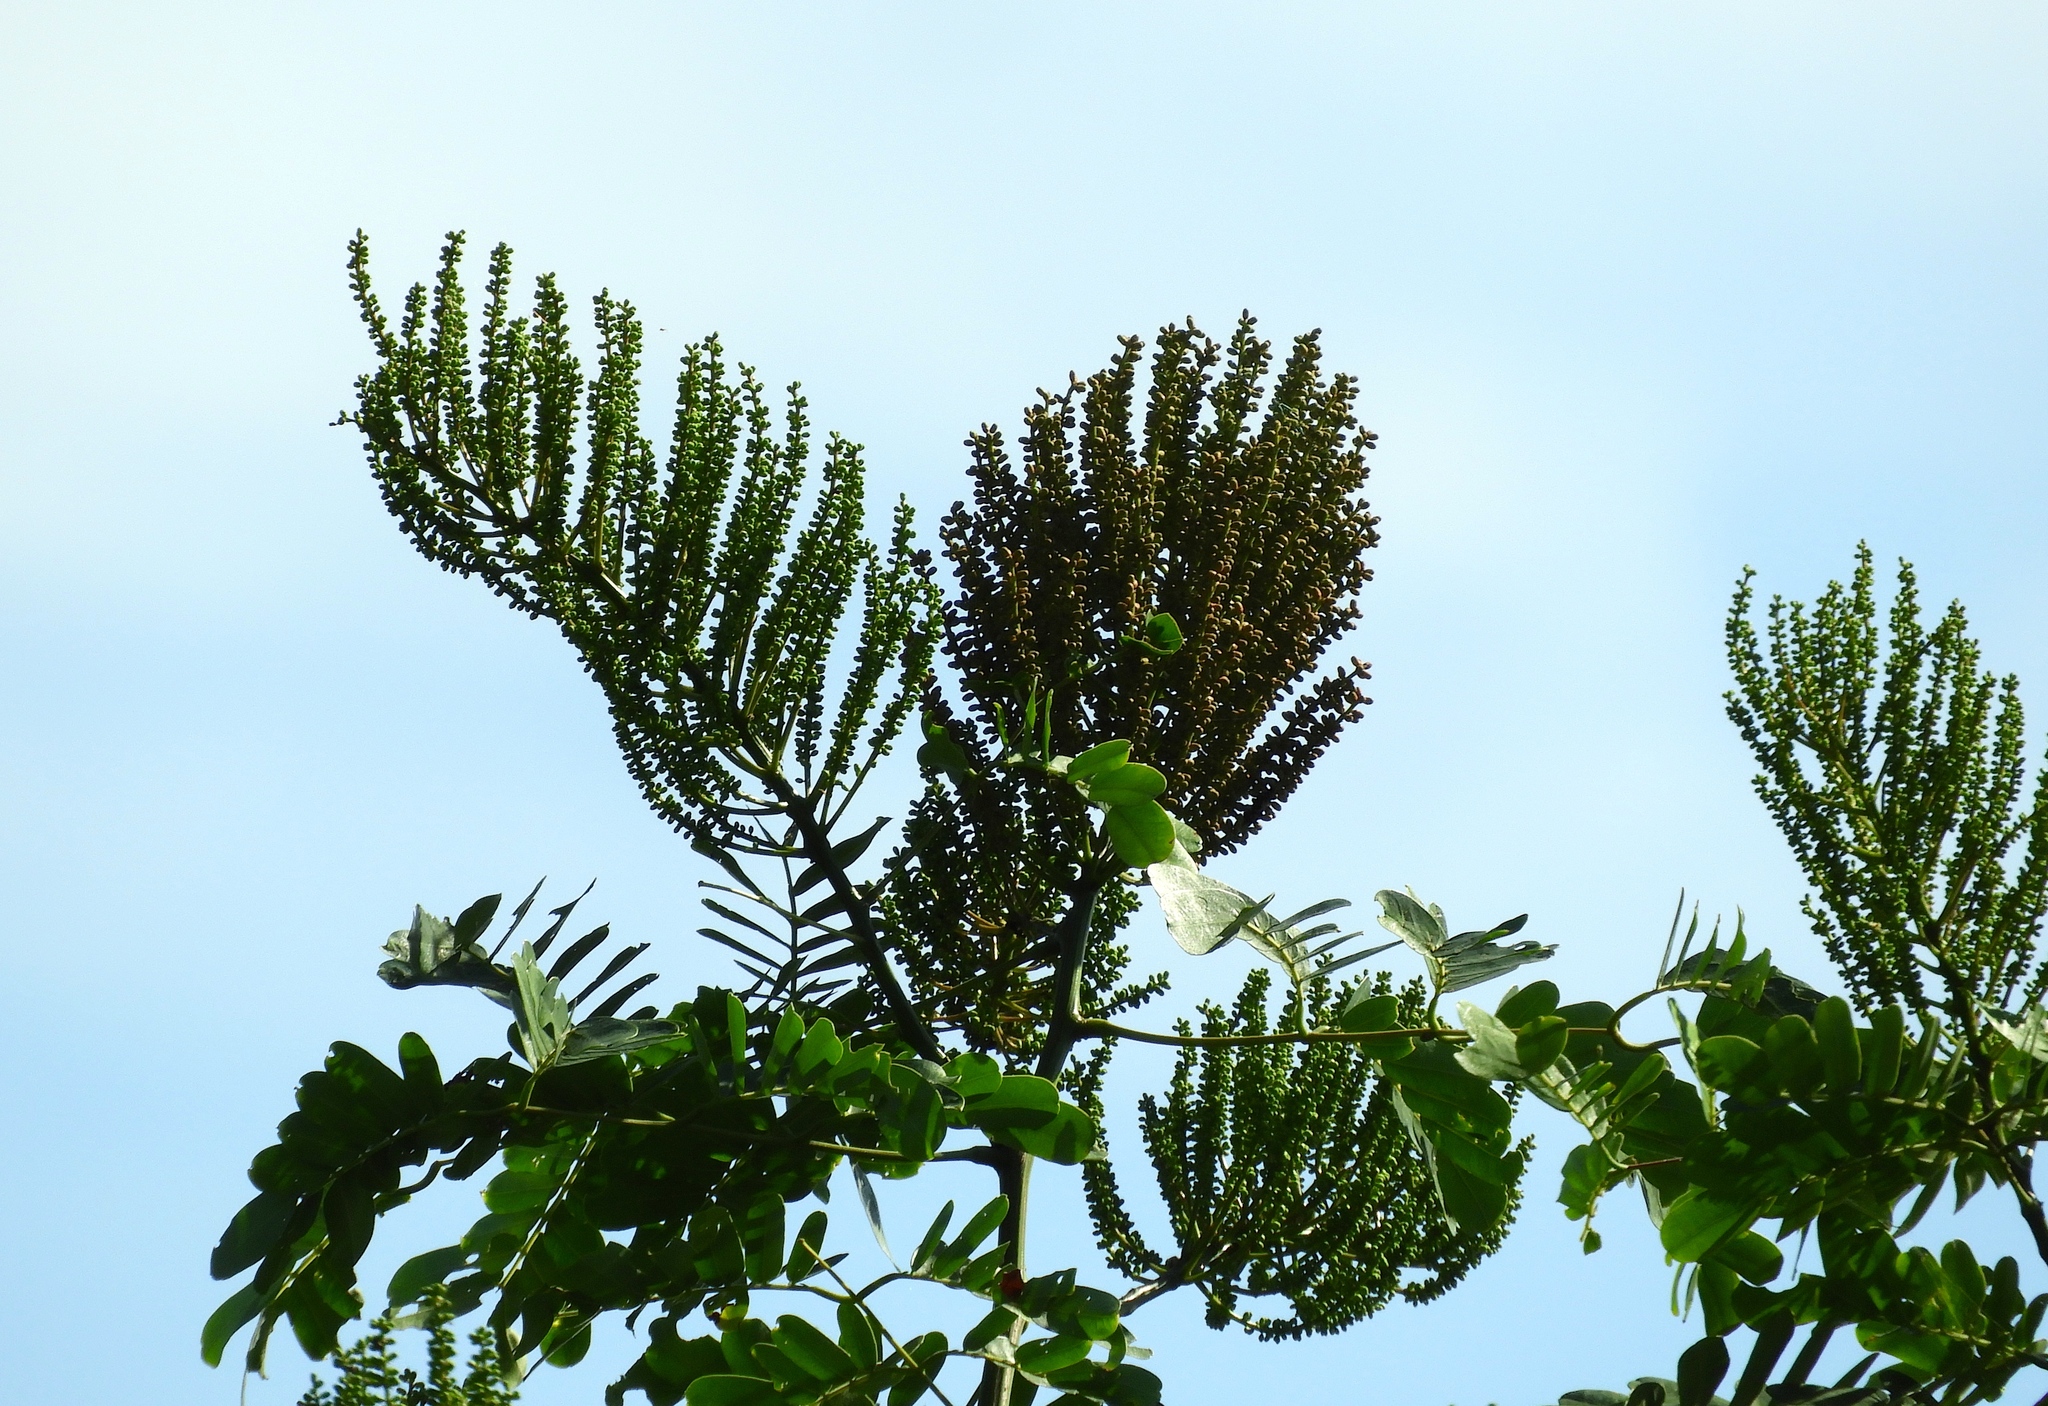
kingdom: Plantae
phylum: Tracheophyta
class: Magnoliopsida
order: Fabales
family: Fabaceae
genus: Entada
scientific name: Entada polystachya
